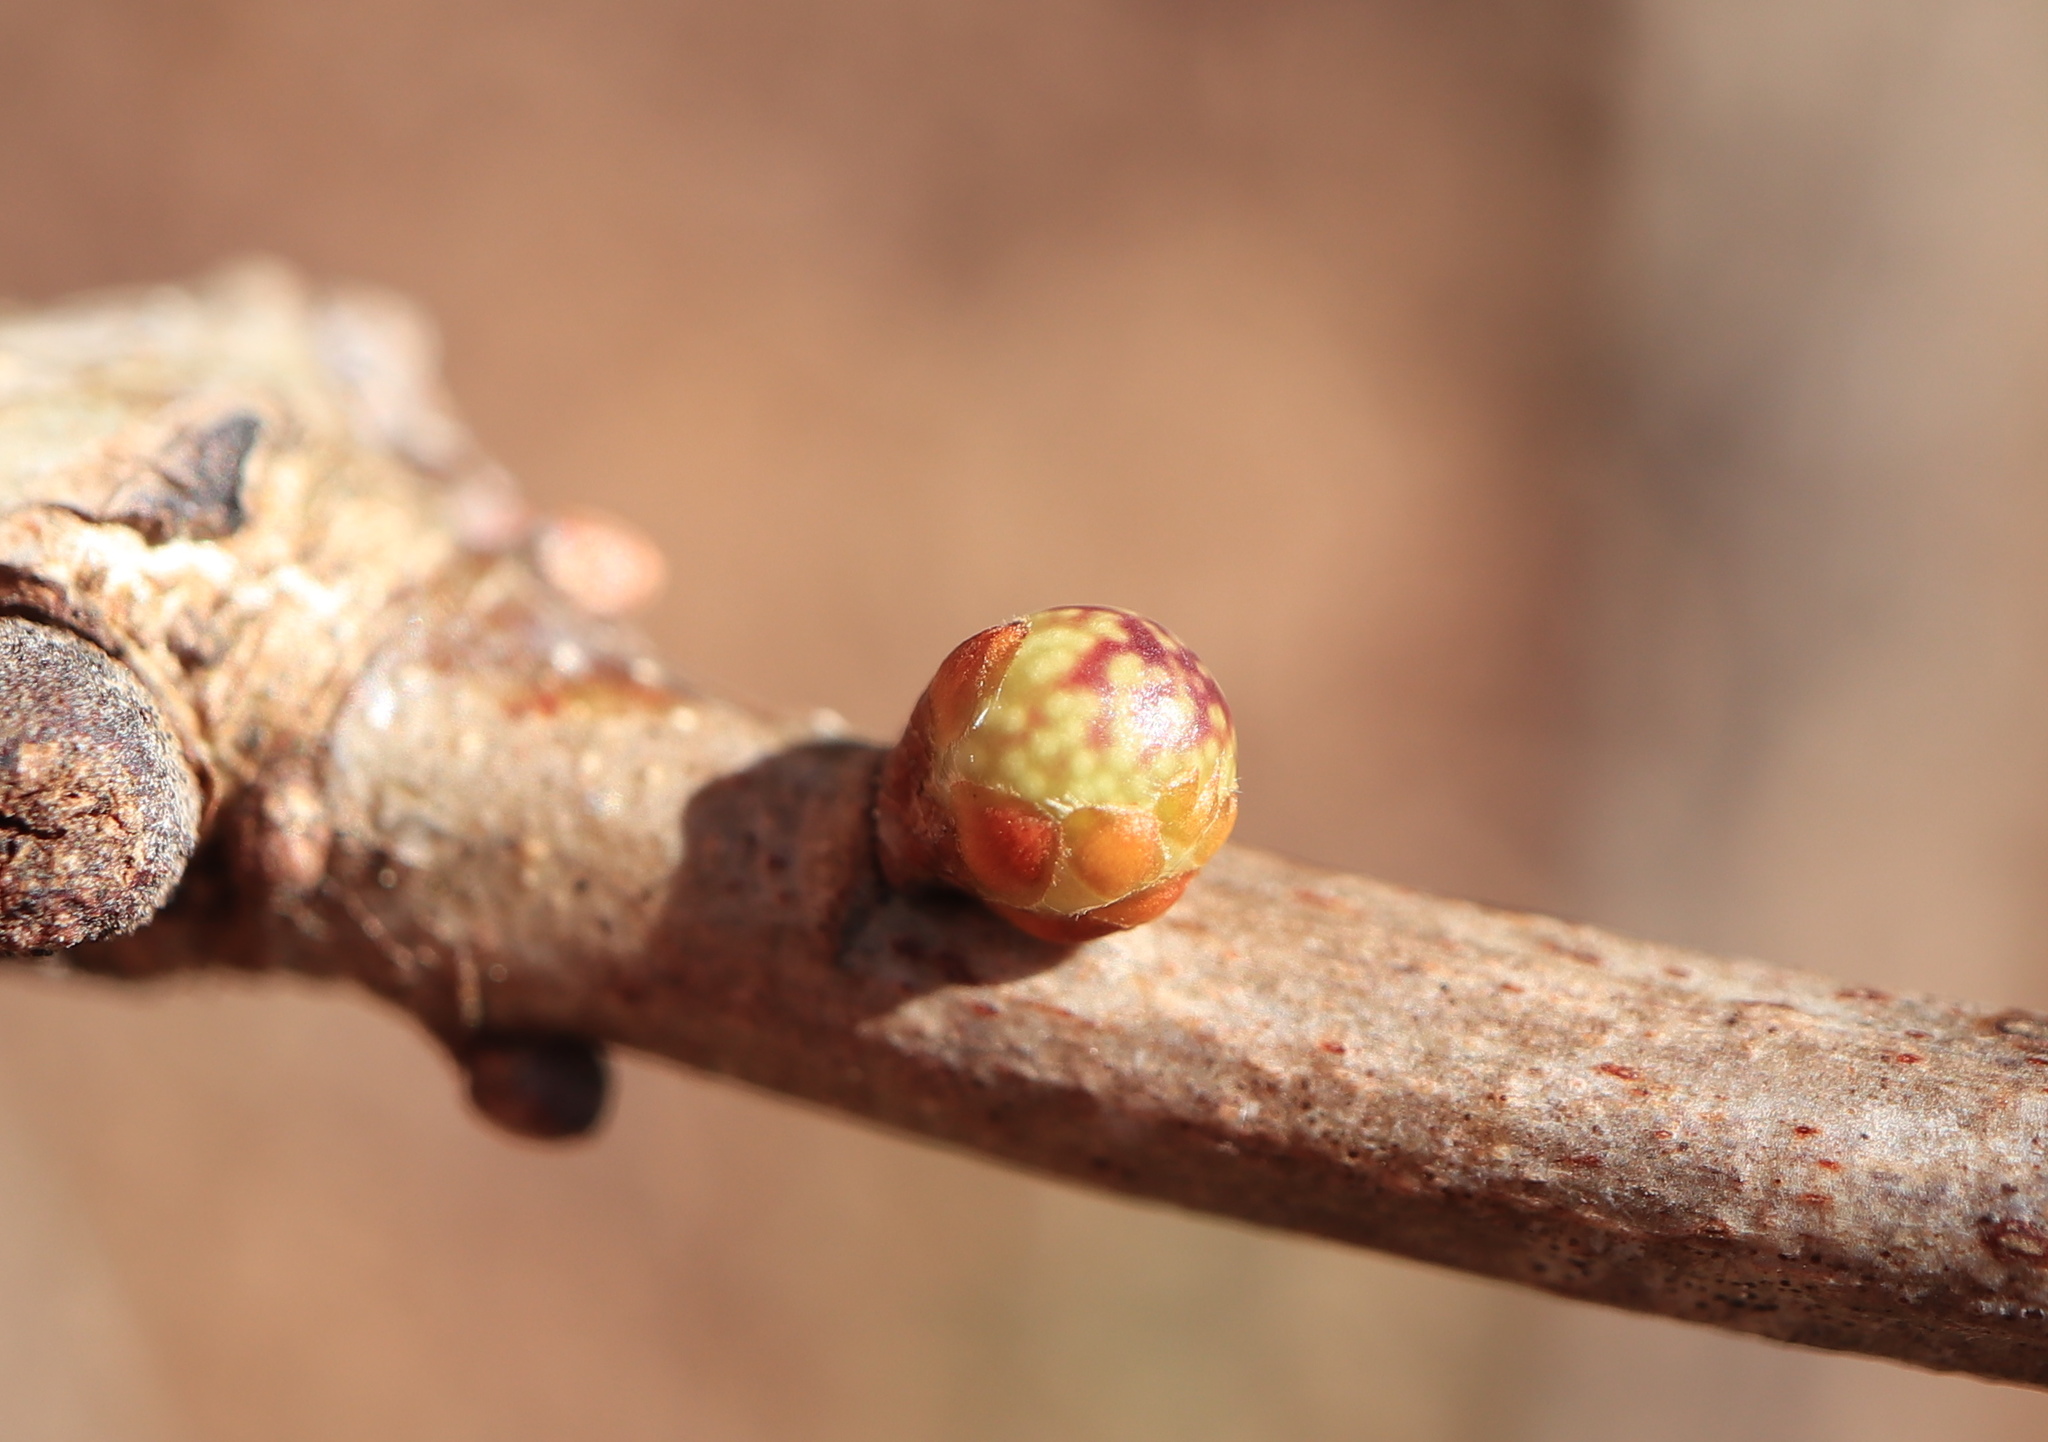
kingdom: Animalia
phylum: Arthropoda
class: Insecta
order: Hymenoptera
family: Cynipidae
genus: Andricus
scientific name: Andricus
